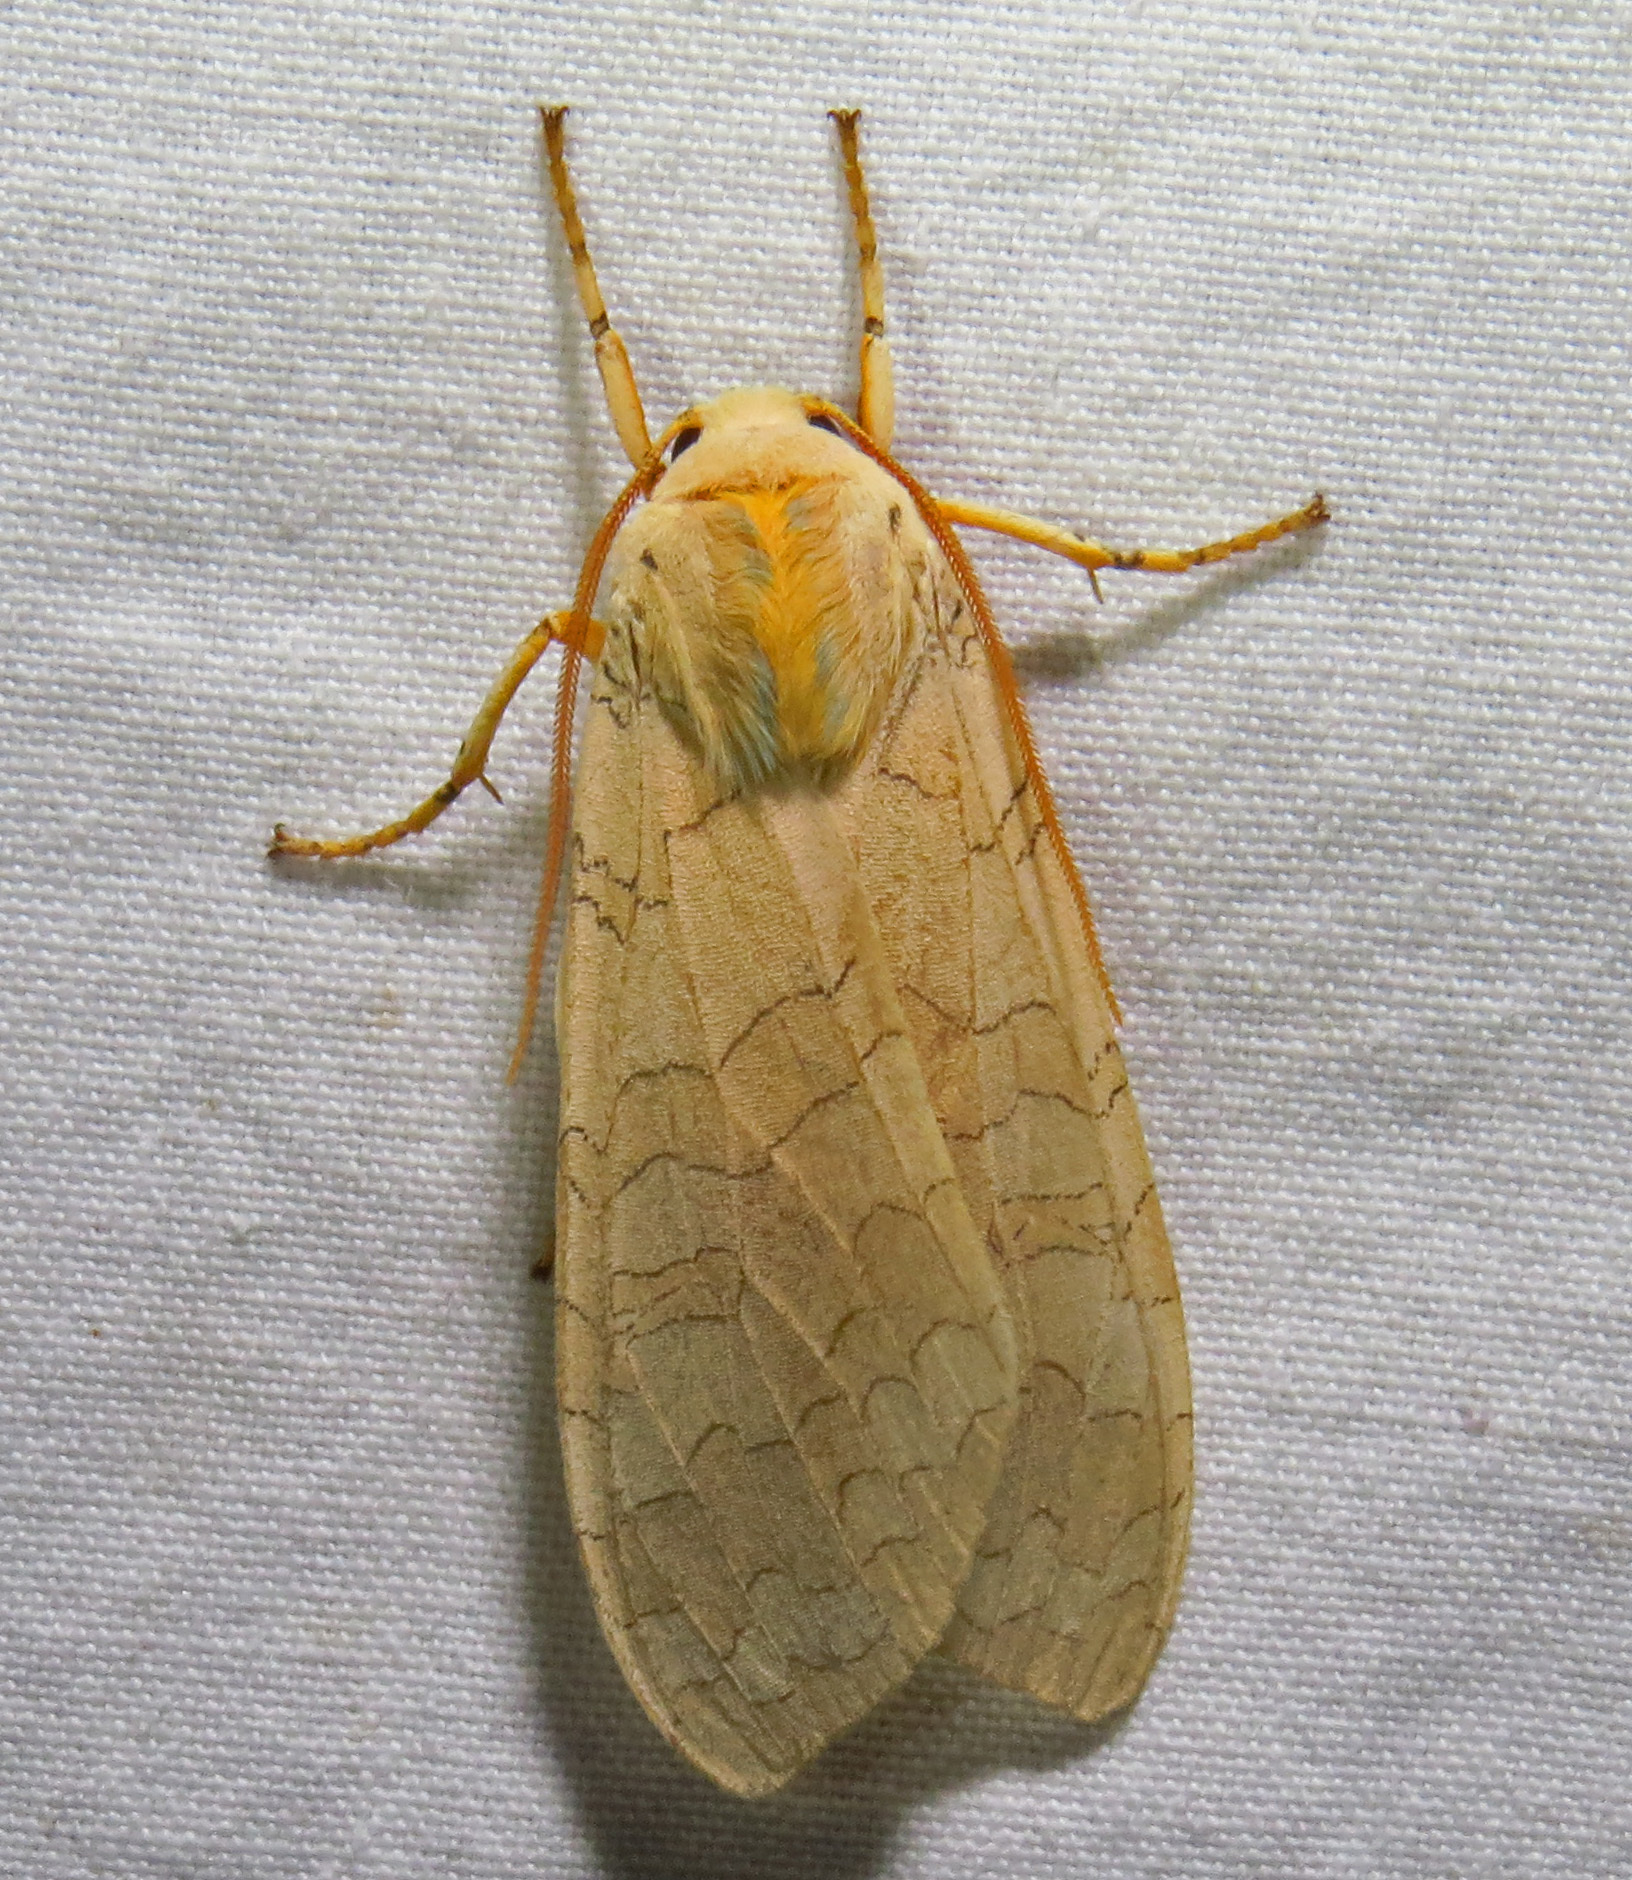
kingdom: Animalia
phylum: Arthropoda
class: Insecta
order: Lepidoptera
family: Erebidae
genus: Halysidota
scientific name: Halysidota
